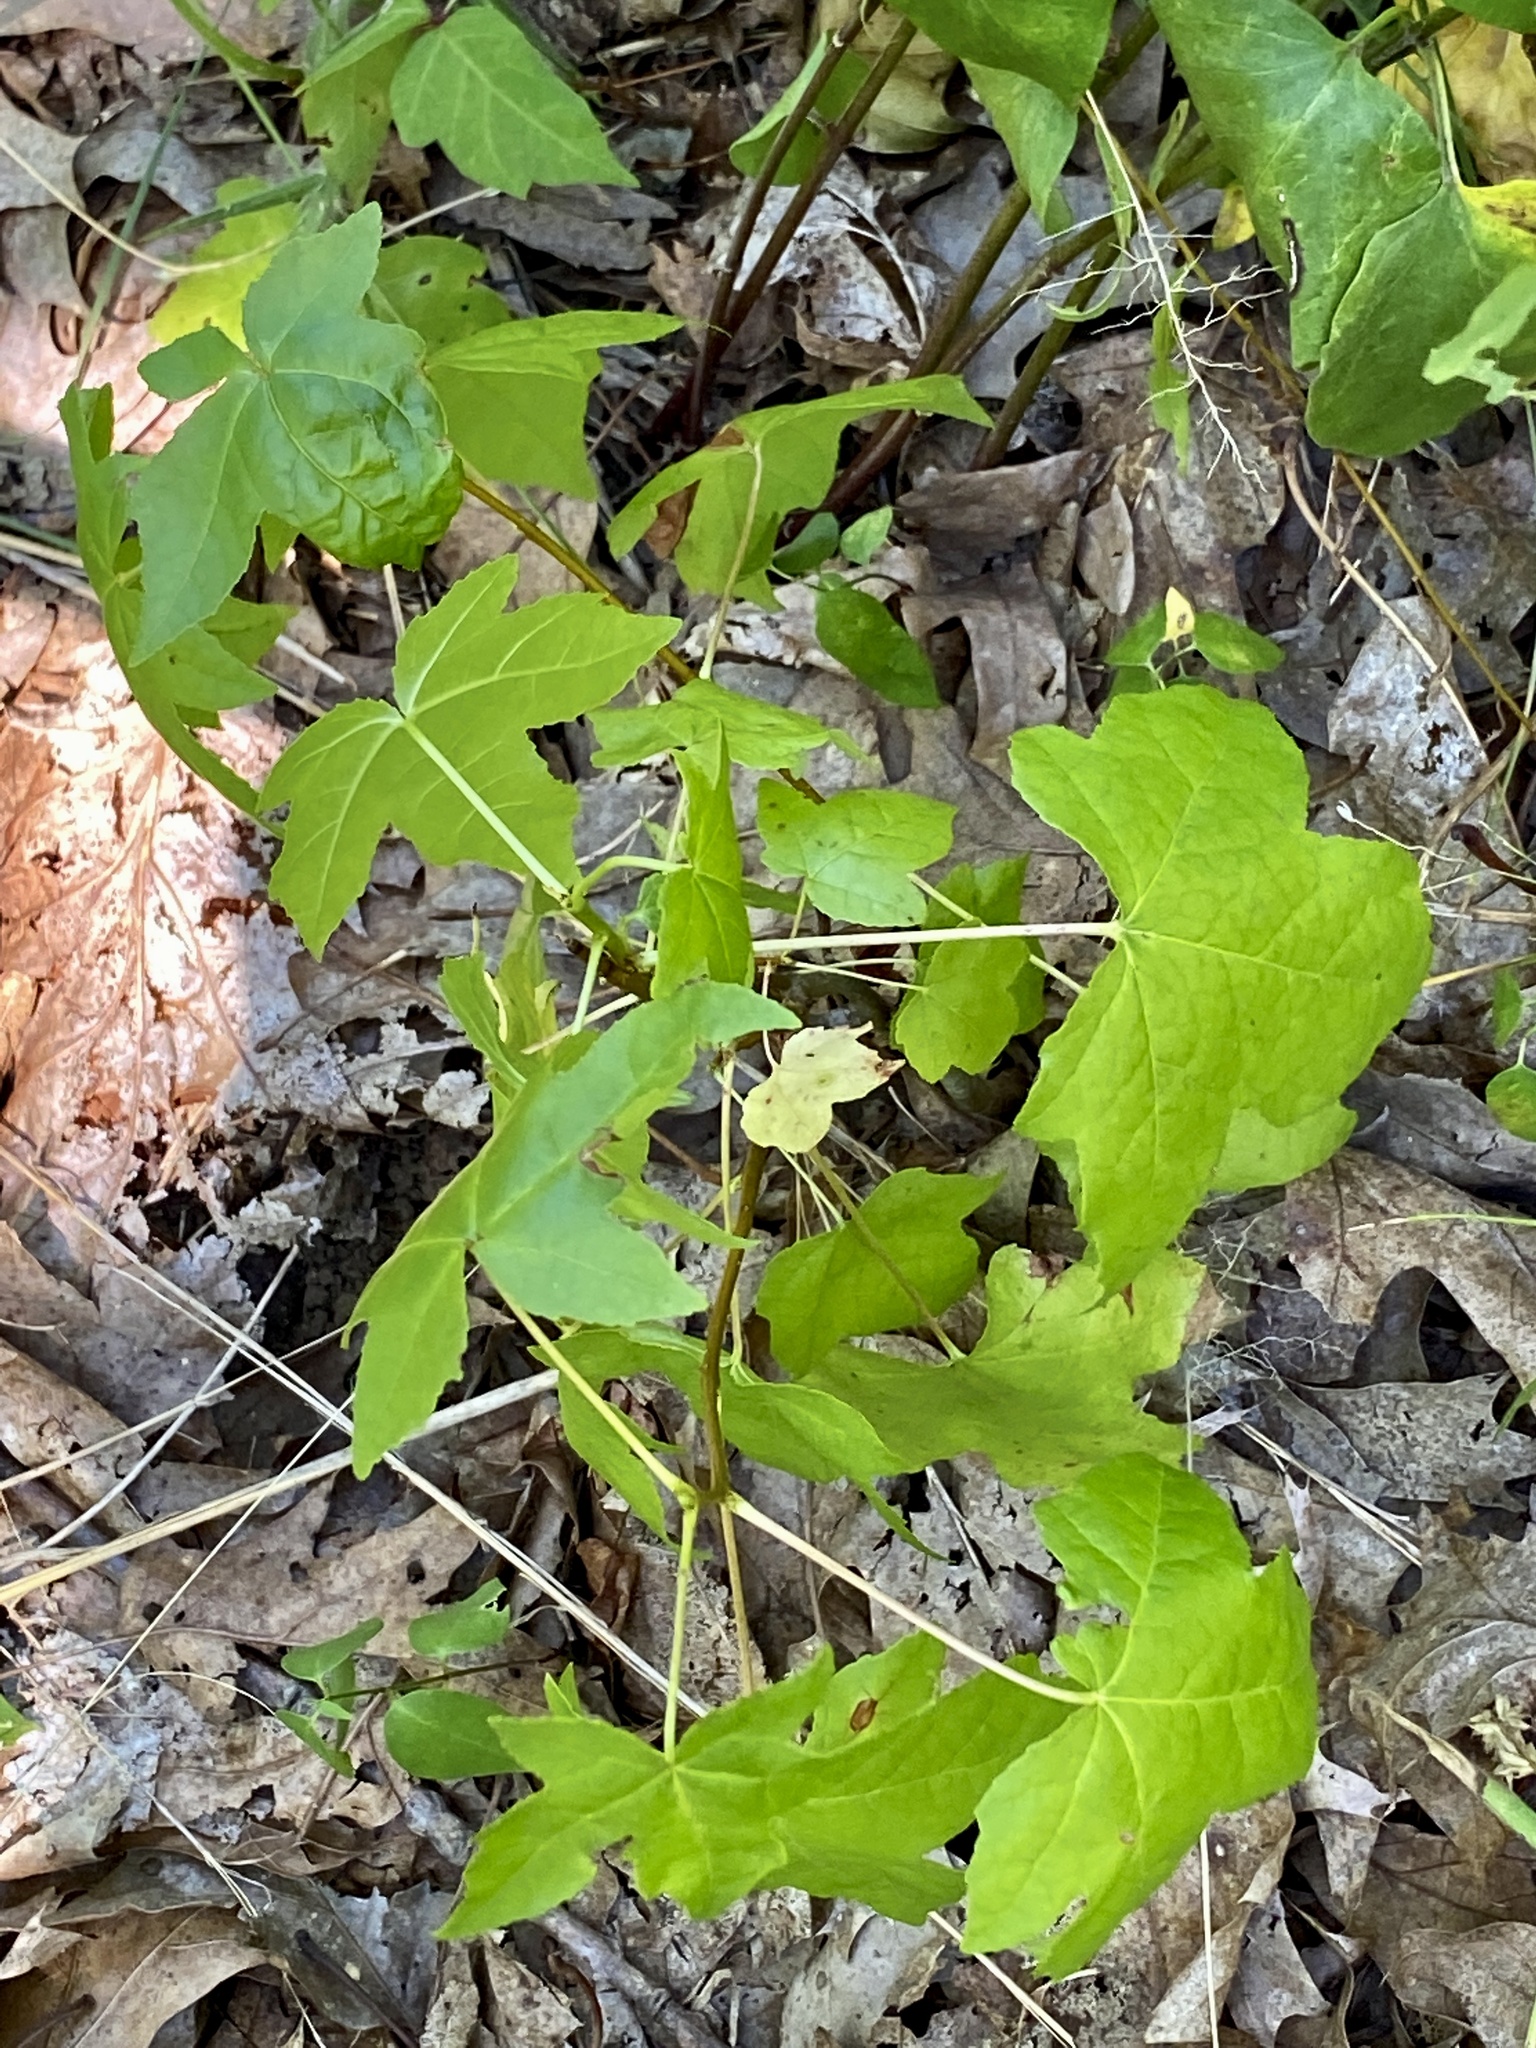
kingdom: Plantae
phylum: Tracheophyta
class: Magnoliopsida
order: Saxifragales
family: Altingiaceae
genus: Liquidambar
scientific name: Liquidambar styraciflua
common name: Sweet gum
